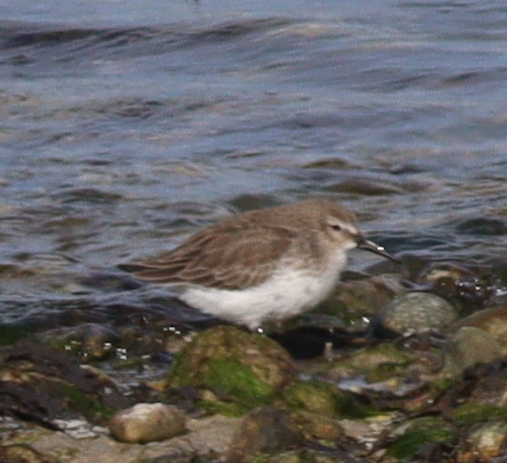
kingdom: Animalia
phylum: Chordata
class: Aves
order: Charadriiformes
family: Scolopacidae
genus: Calidris
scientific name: Calidris alpina
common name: Dunlin
